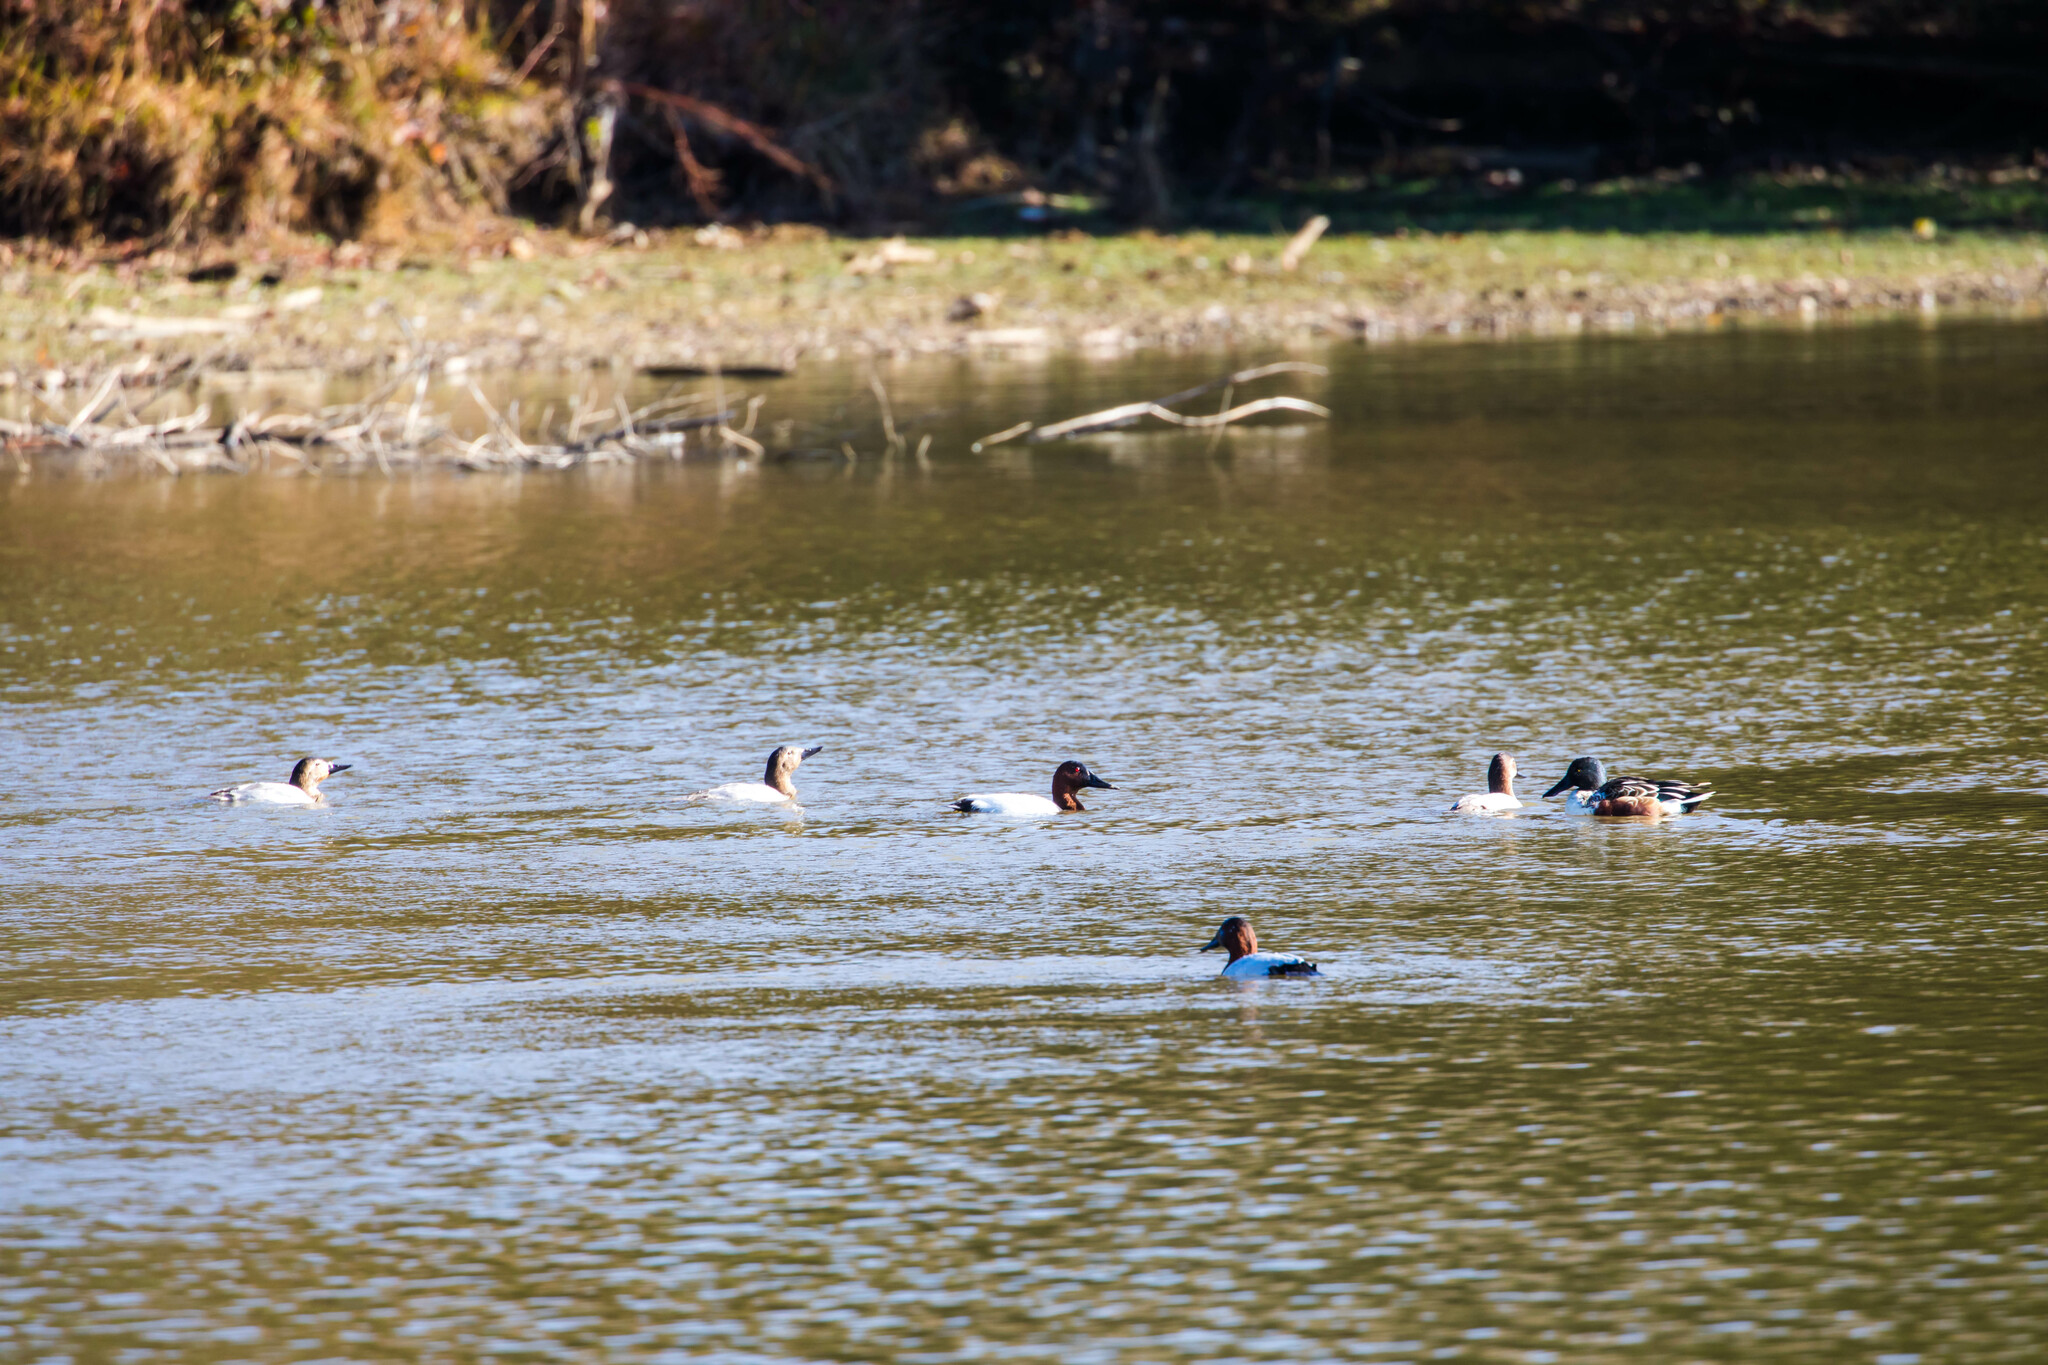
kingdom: Animalia
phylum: Chordata
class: Aves
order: Anseriformes
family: Anatidae
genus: Aythya
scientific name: Aythya valisineria
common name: Canvasback
